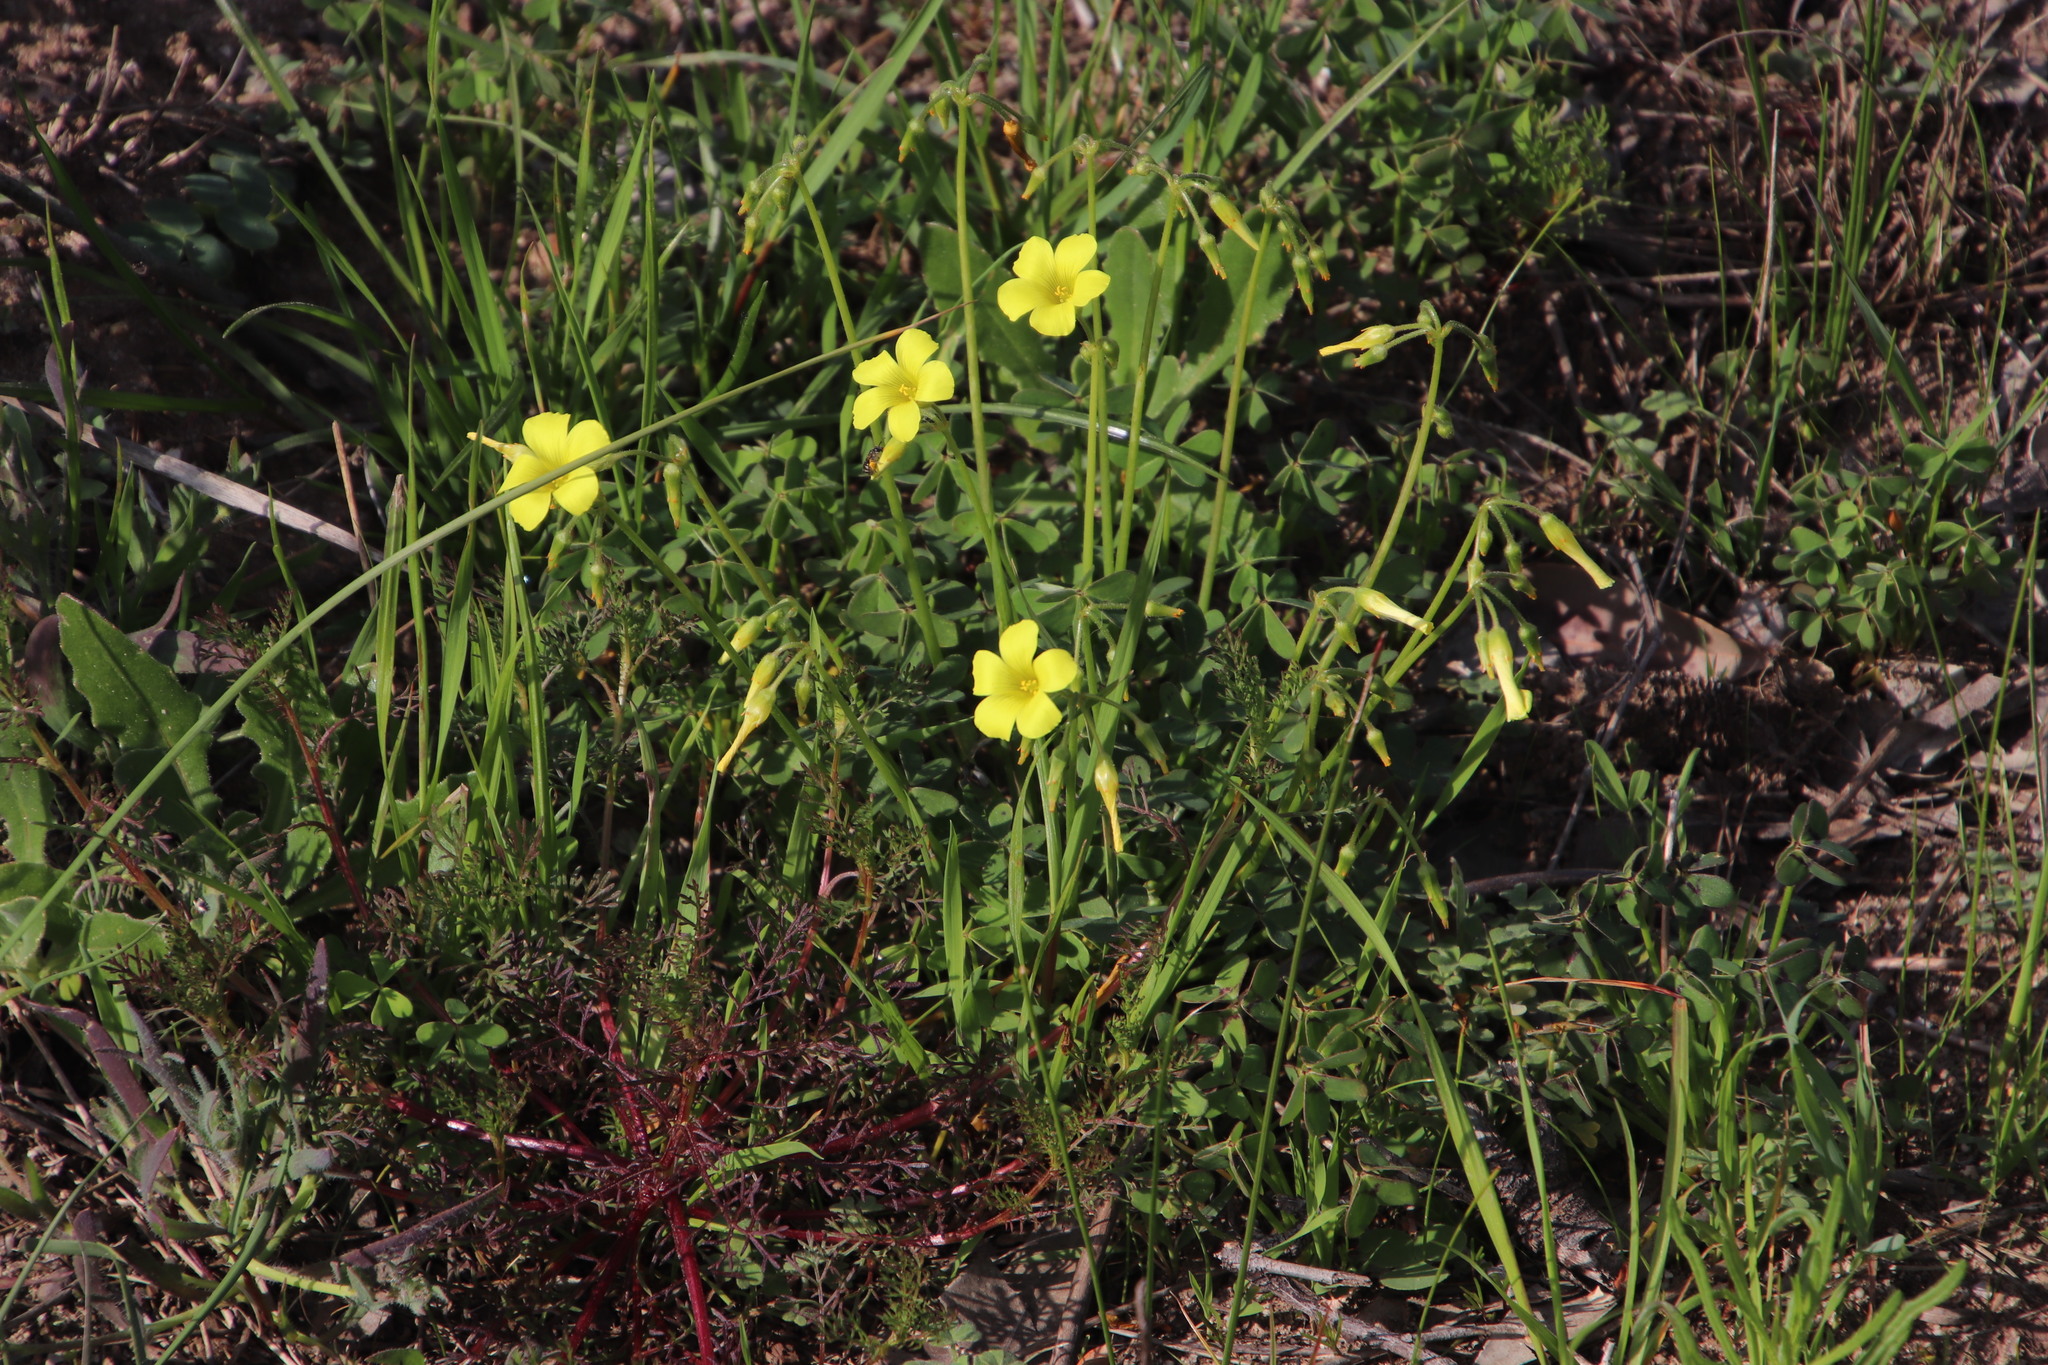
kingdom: Plantae
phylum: Tracheophyta
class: Magnoliopsida
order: Oxalidales
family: Oxalidaceae
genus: Oxalis
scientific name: Oxalis pes-caprae
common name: Bermuda-buttercup
